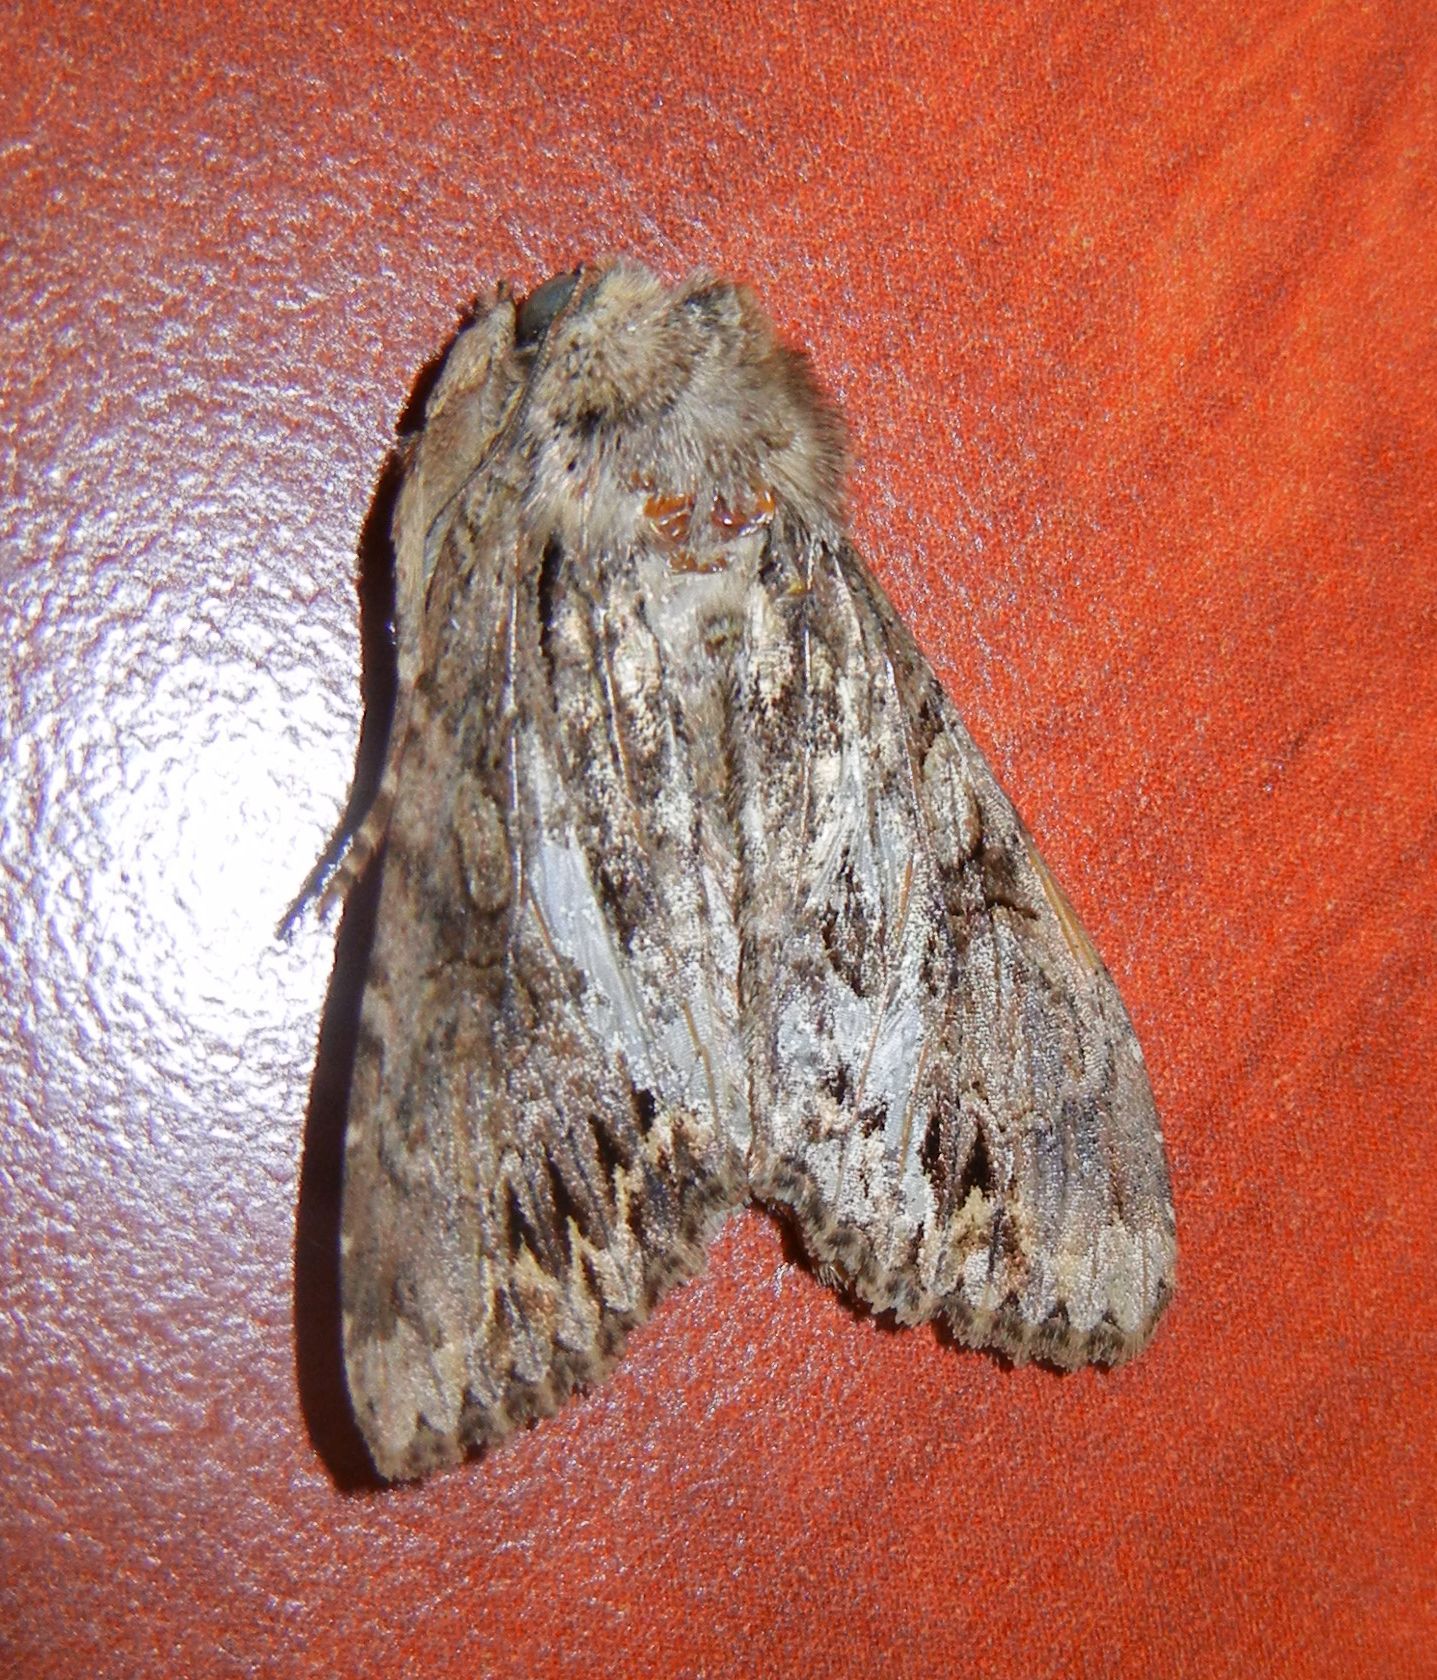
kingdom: Animalia
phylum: Arthropoda
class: Insecta
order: Lepidoptera
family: Noctuidae
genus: Apamea
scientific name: Apamea monoglypha
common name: Dark arches
